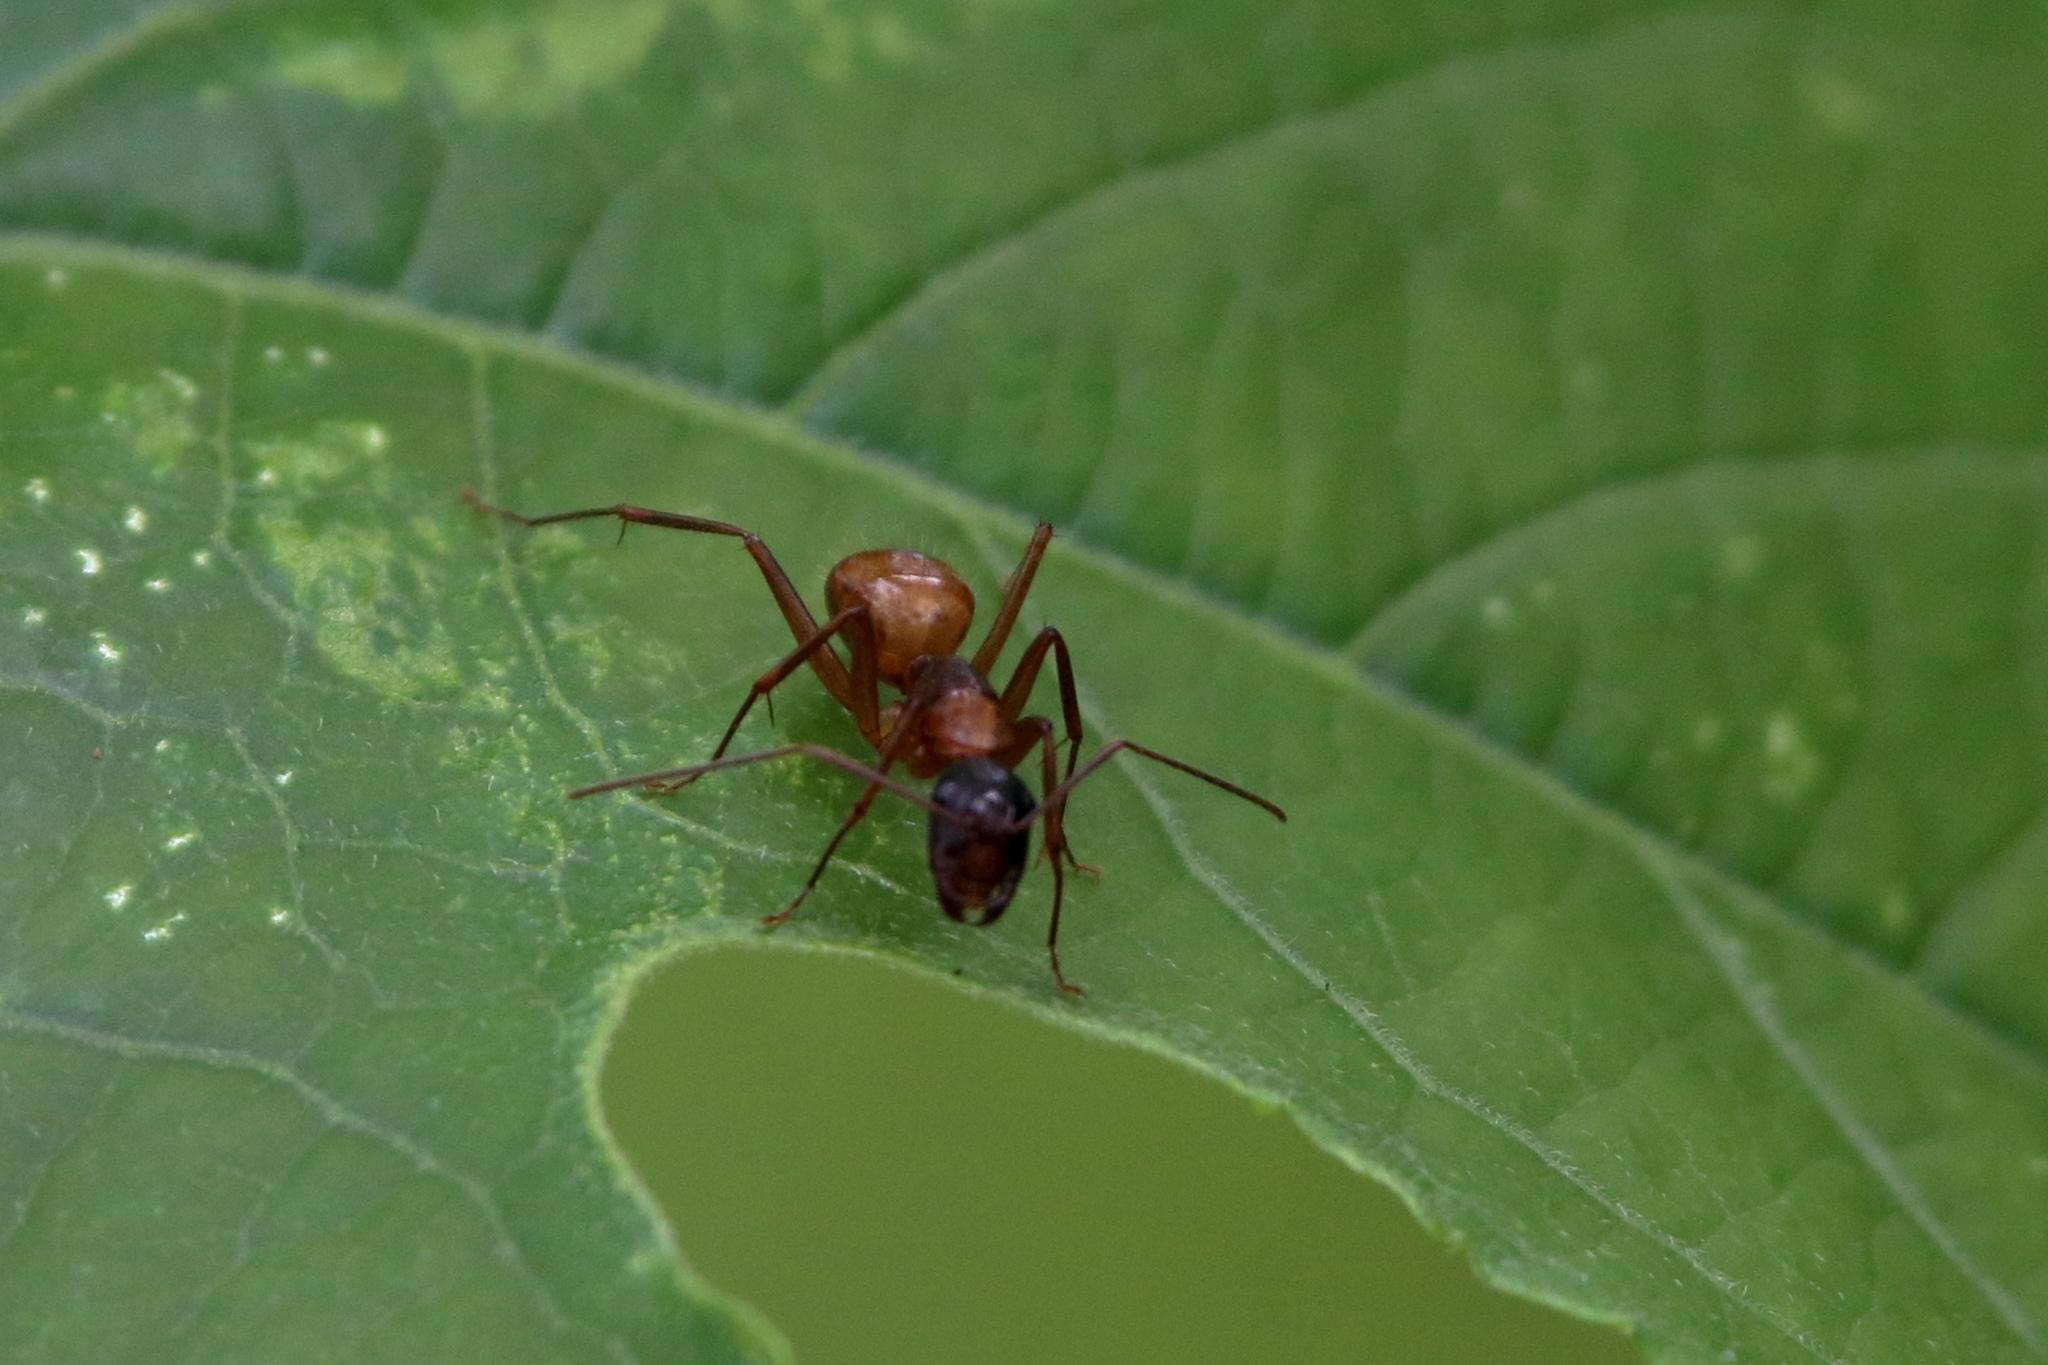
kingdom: Animalia
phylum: Arthropoda
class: Insecta
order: Hymenoptera
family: Formicidae
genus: Camponotus
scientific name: Camponotus americanus
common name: American carpenter ant
